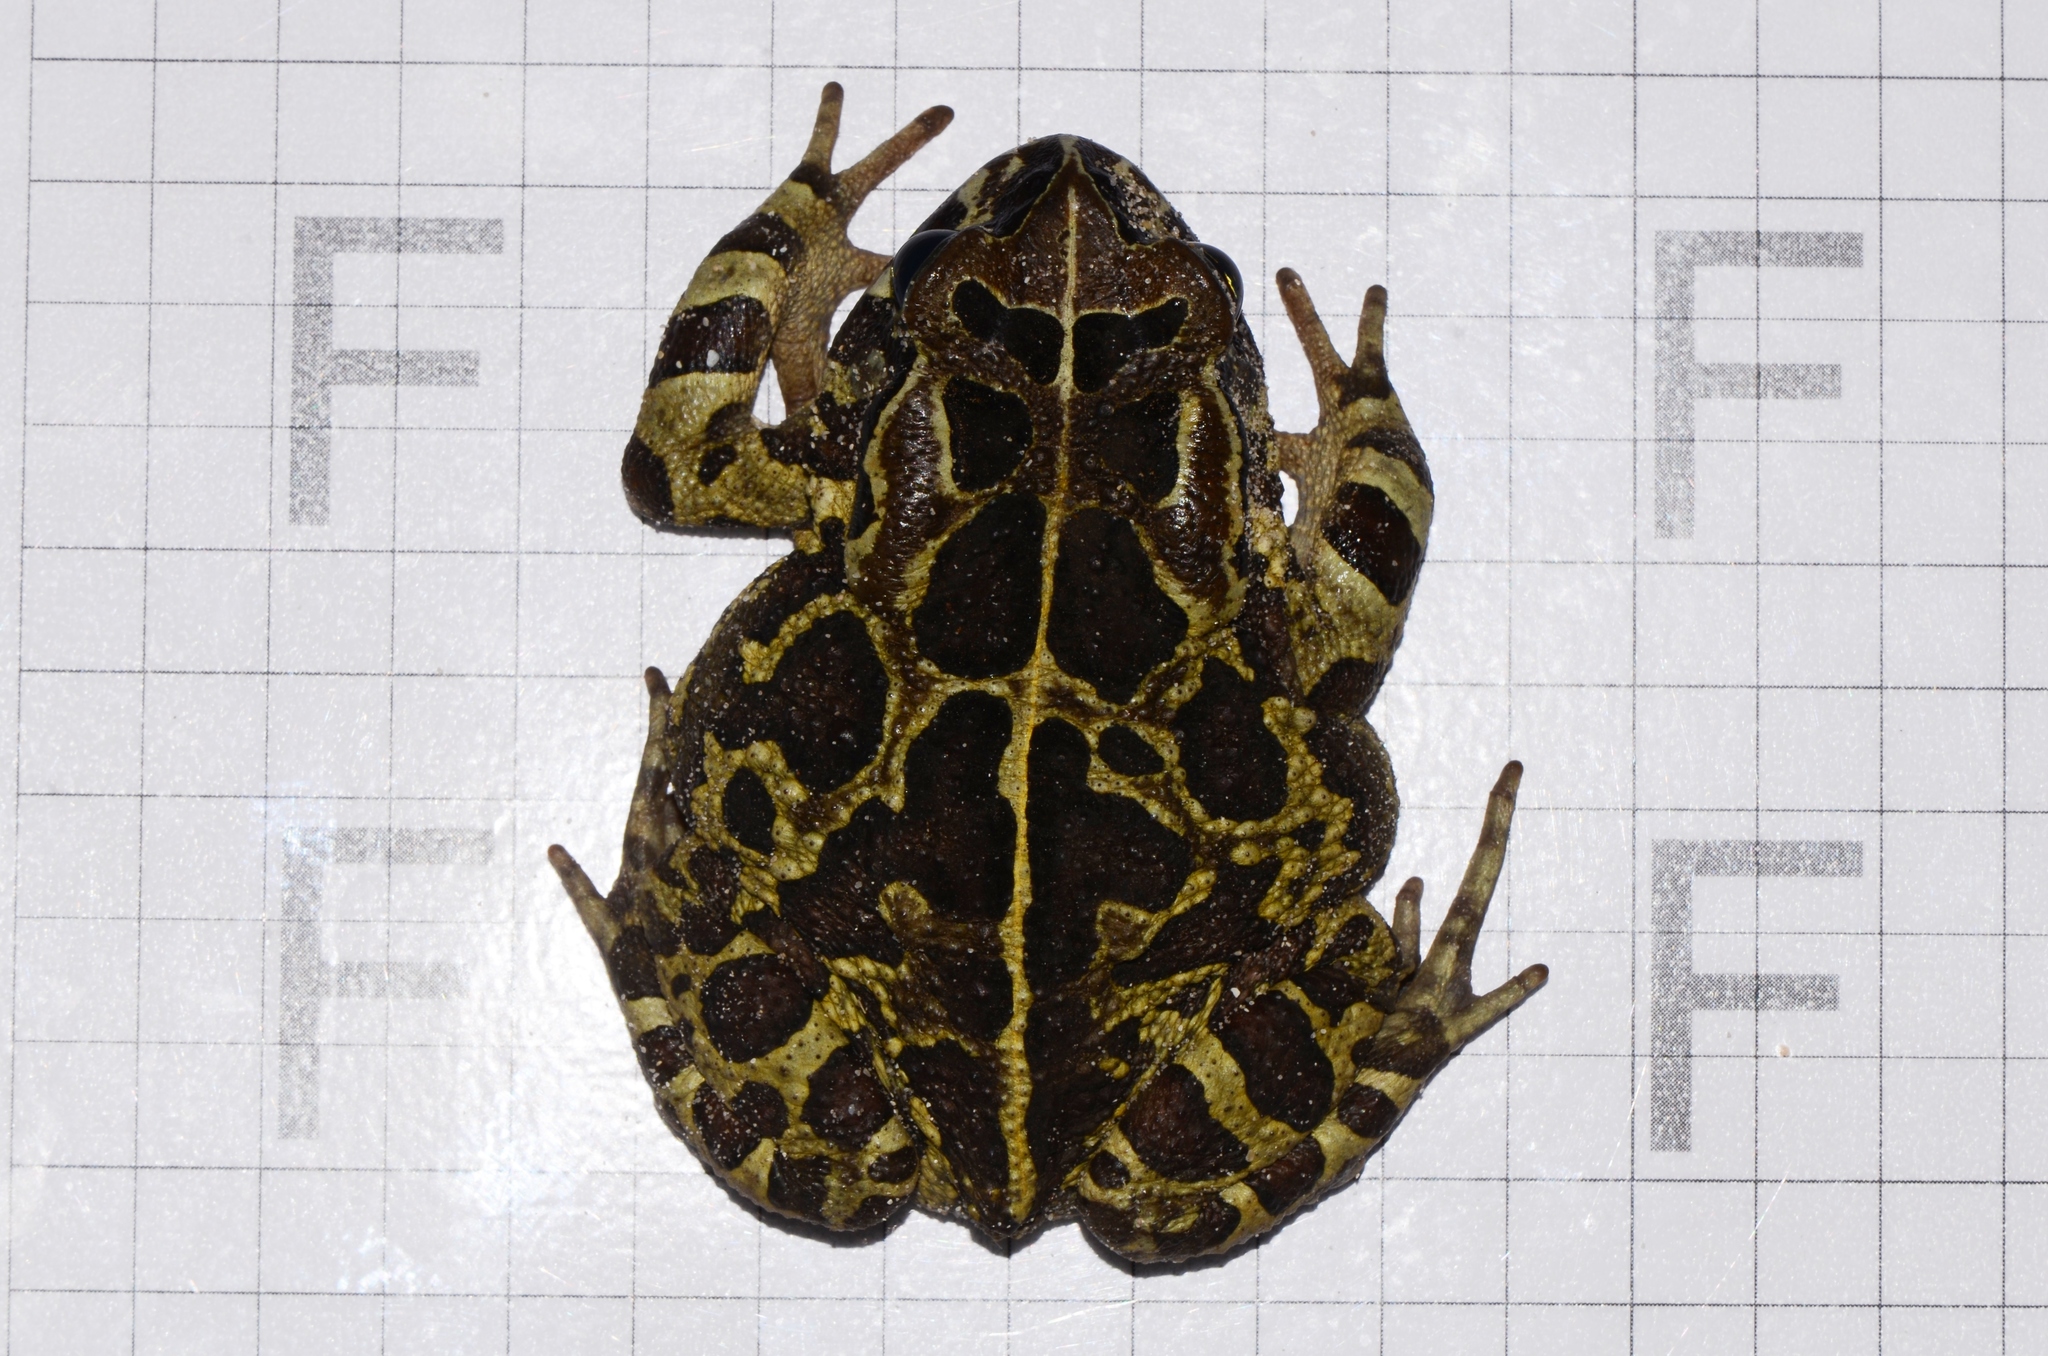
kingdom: Animalia
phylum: Chordata
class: Amphibia
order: Anura
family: Bufonidae
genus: Sclerophrys
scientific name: Sclerophrys pantherina
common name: Panther toad
